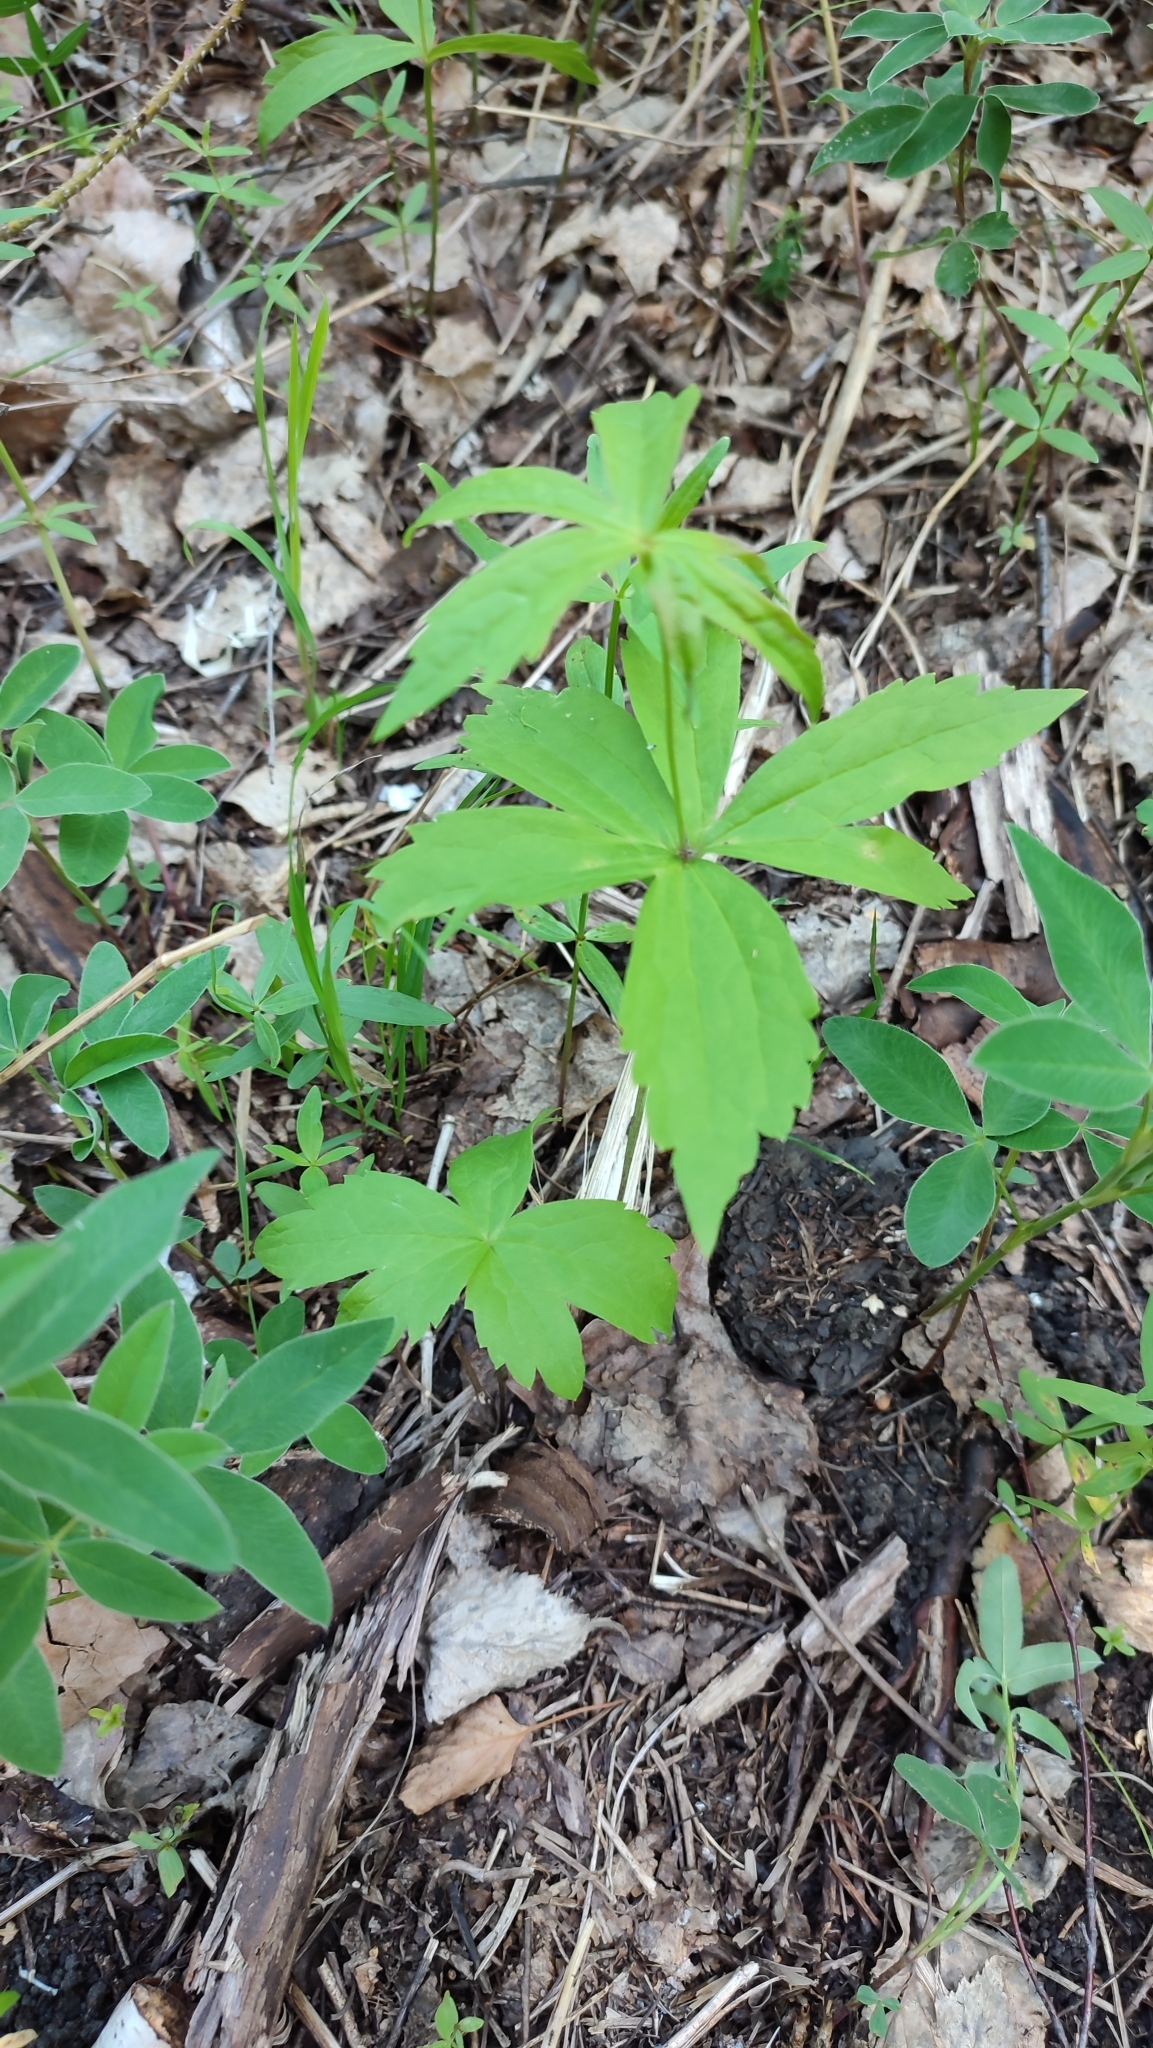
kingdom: Plantae
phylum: Tracheophyta
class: Magnoliopsida
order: Ranunculales
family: Ranunculaceae
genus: Anemonastrum
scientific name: Anemonastrum dichotomum
